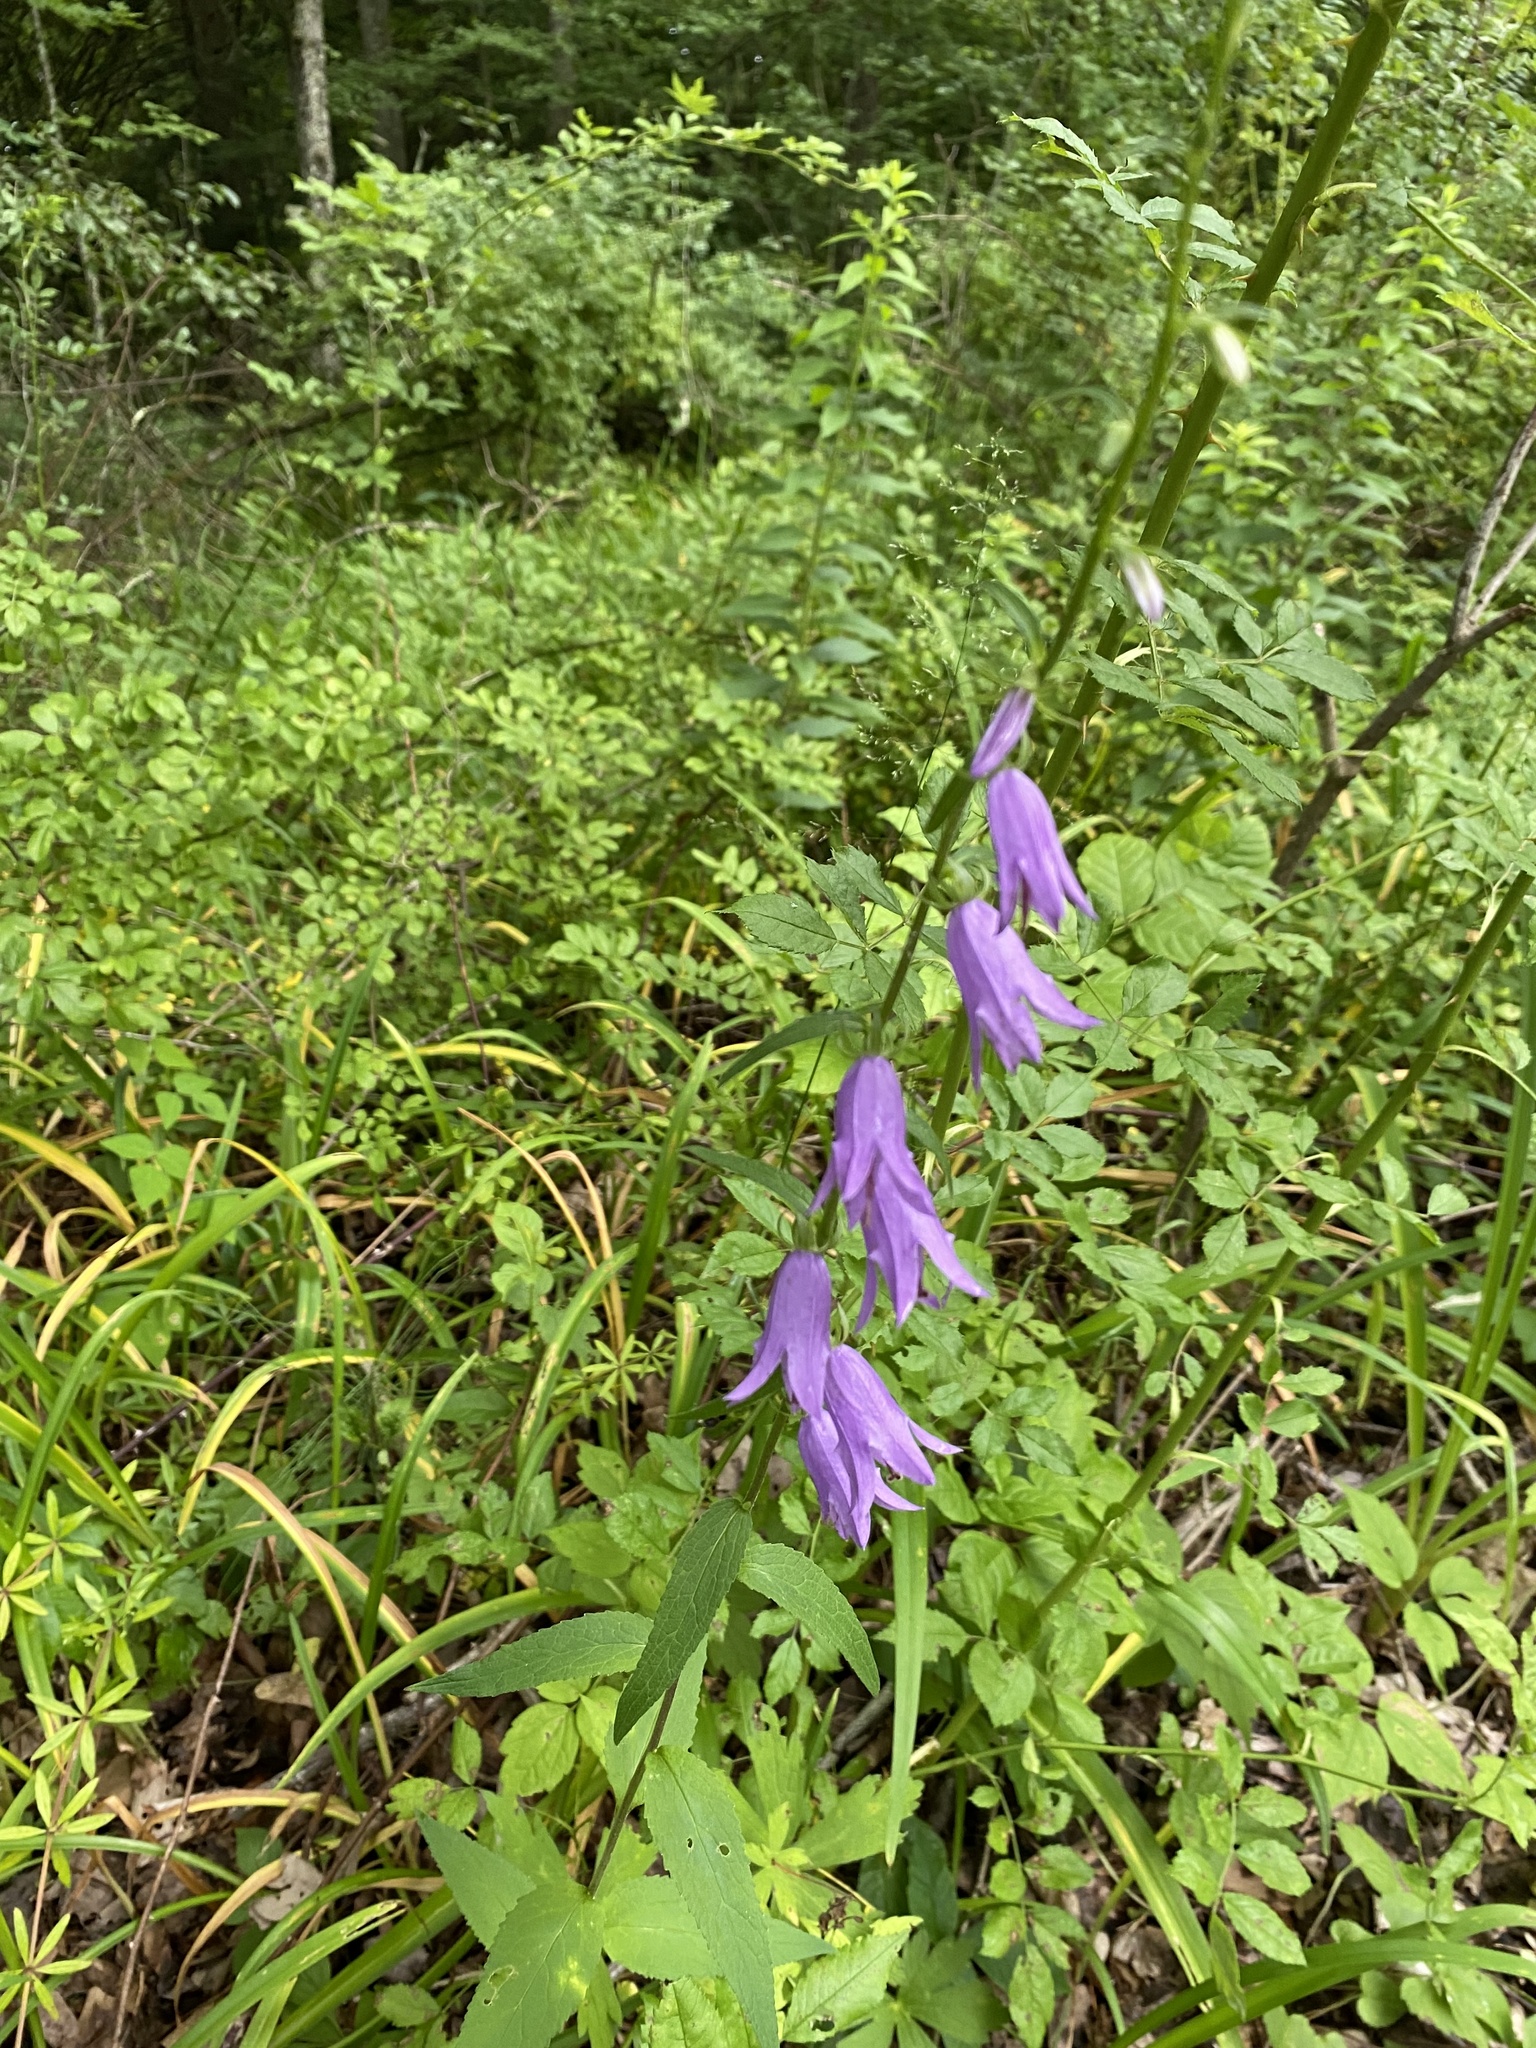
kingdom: Plantae
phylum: Tracheophyta
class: Magnoliopsida
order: Asterales
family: Campanulaceae
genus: Campanula
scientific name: Campanula rapunculoides
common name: Creeping bellflower
